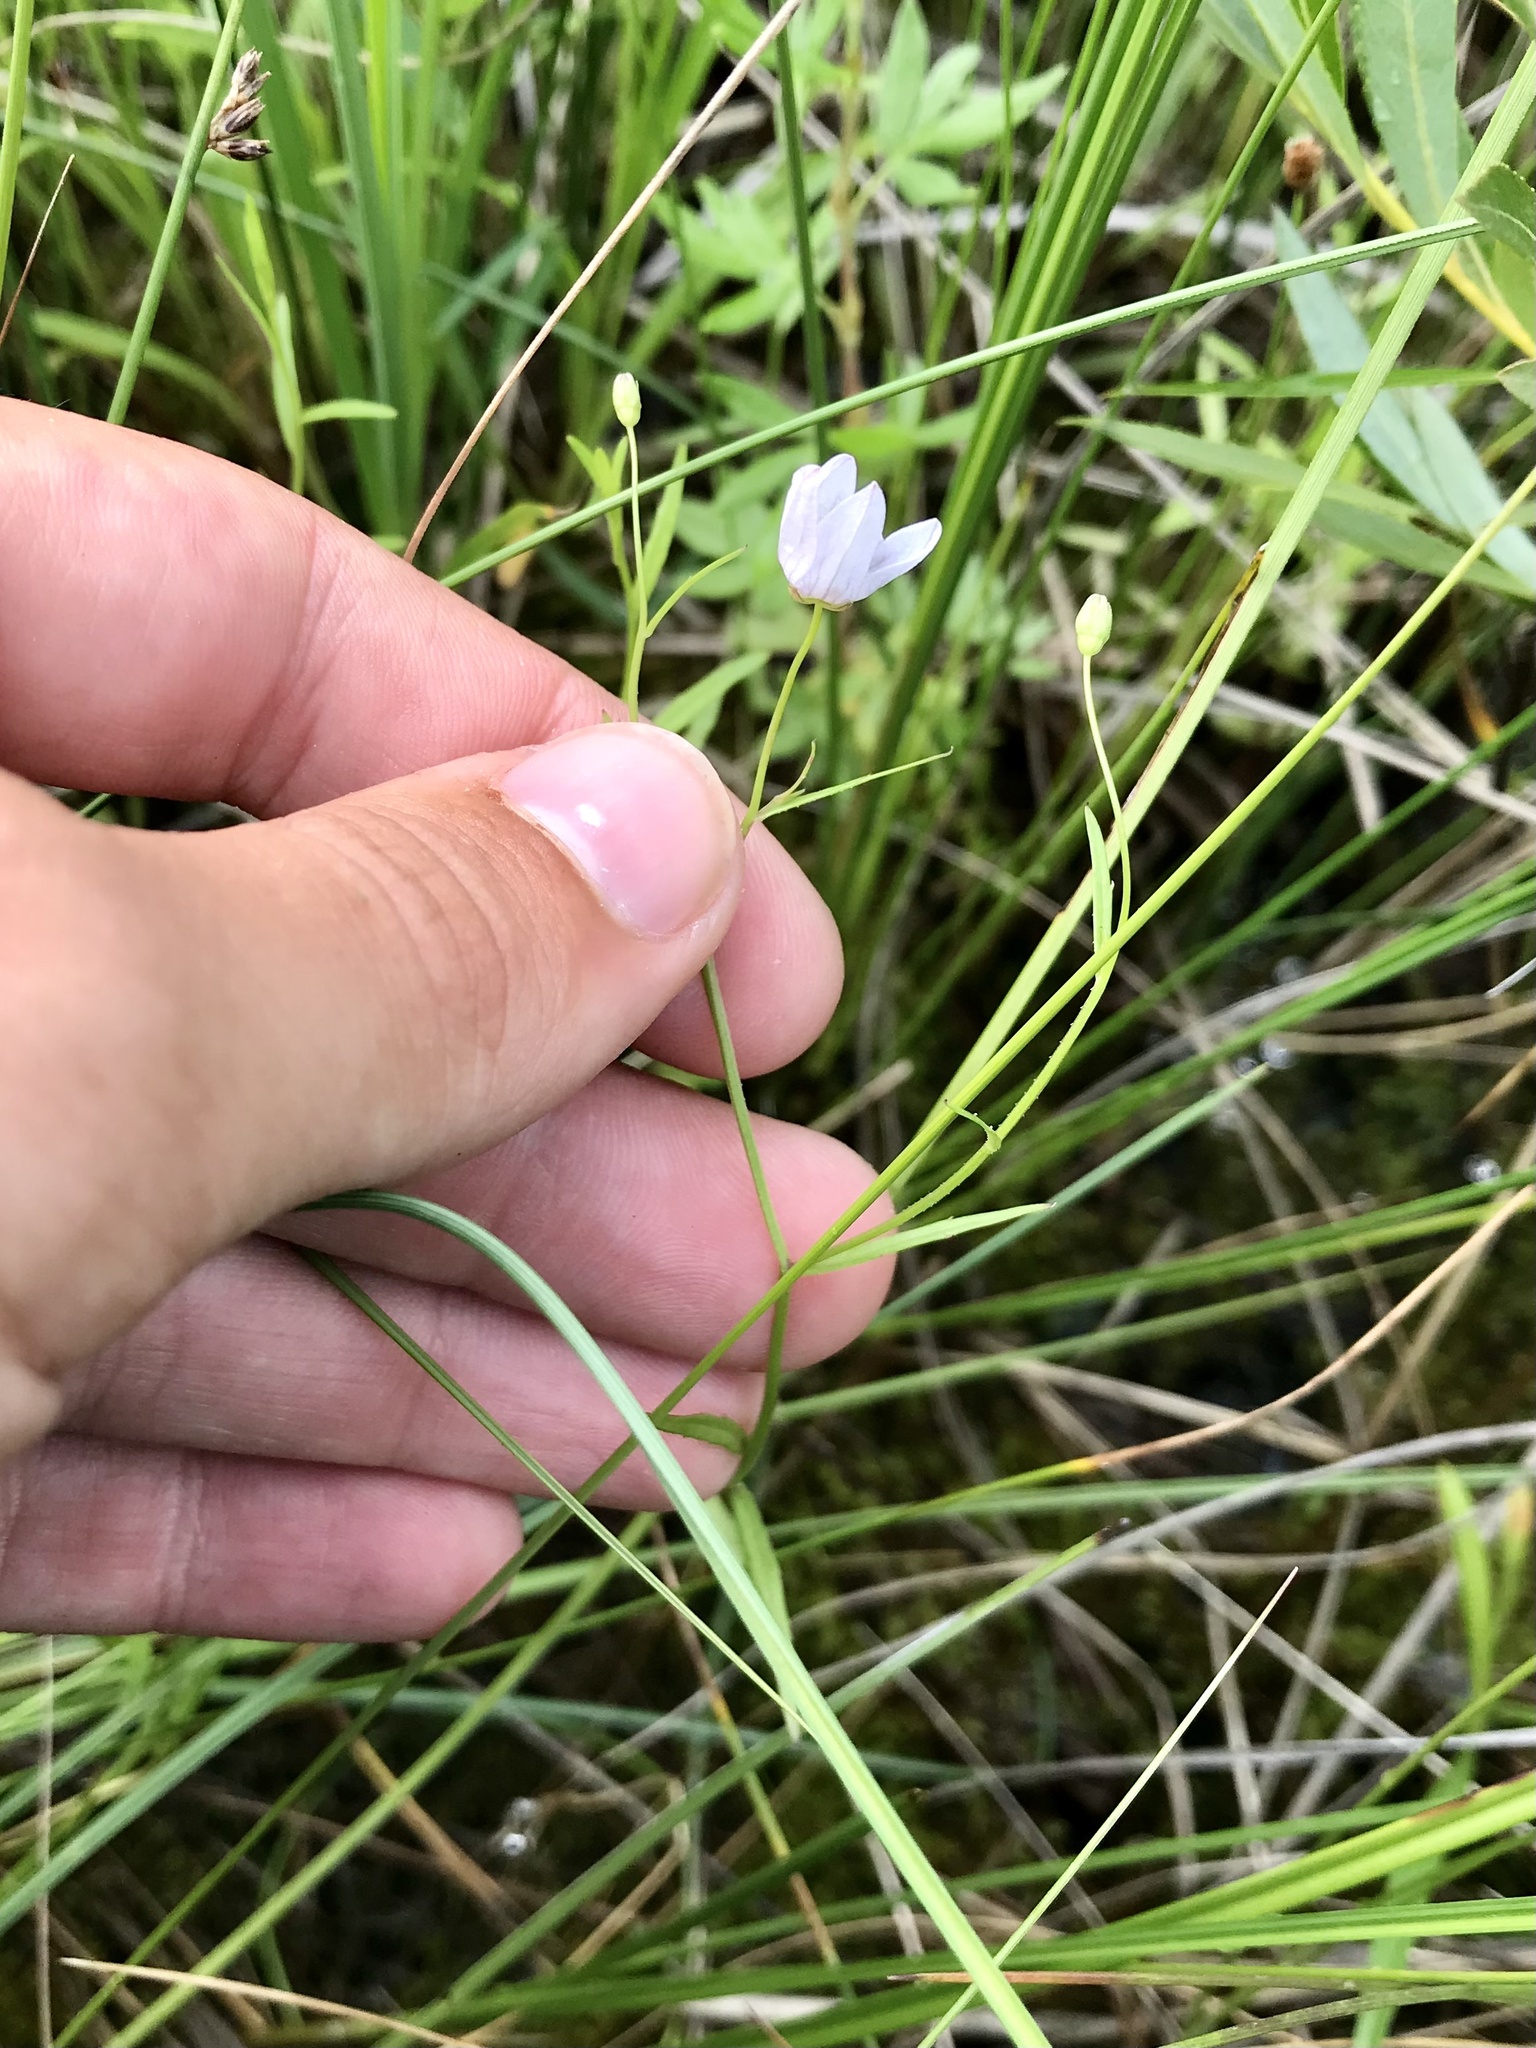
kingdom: Plantae
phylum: Tracheophyta
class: Magnoliopsida
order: Asterales
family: Campanulaceae
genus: Palustricodon
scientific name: Palustricodon aparinoides
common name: Bedstraw bellflower
